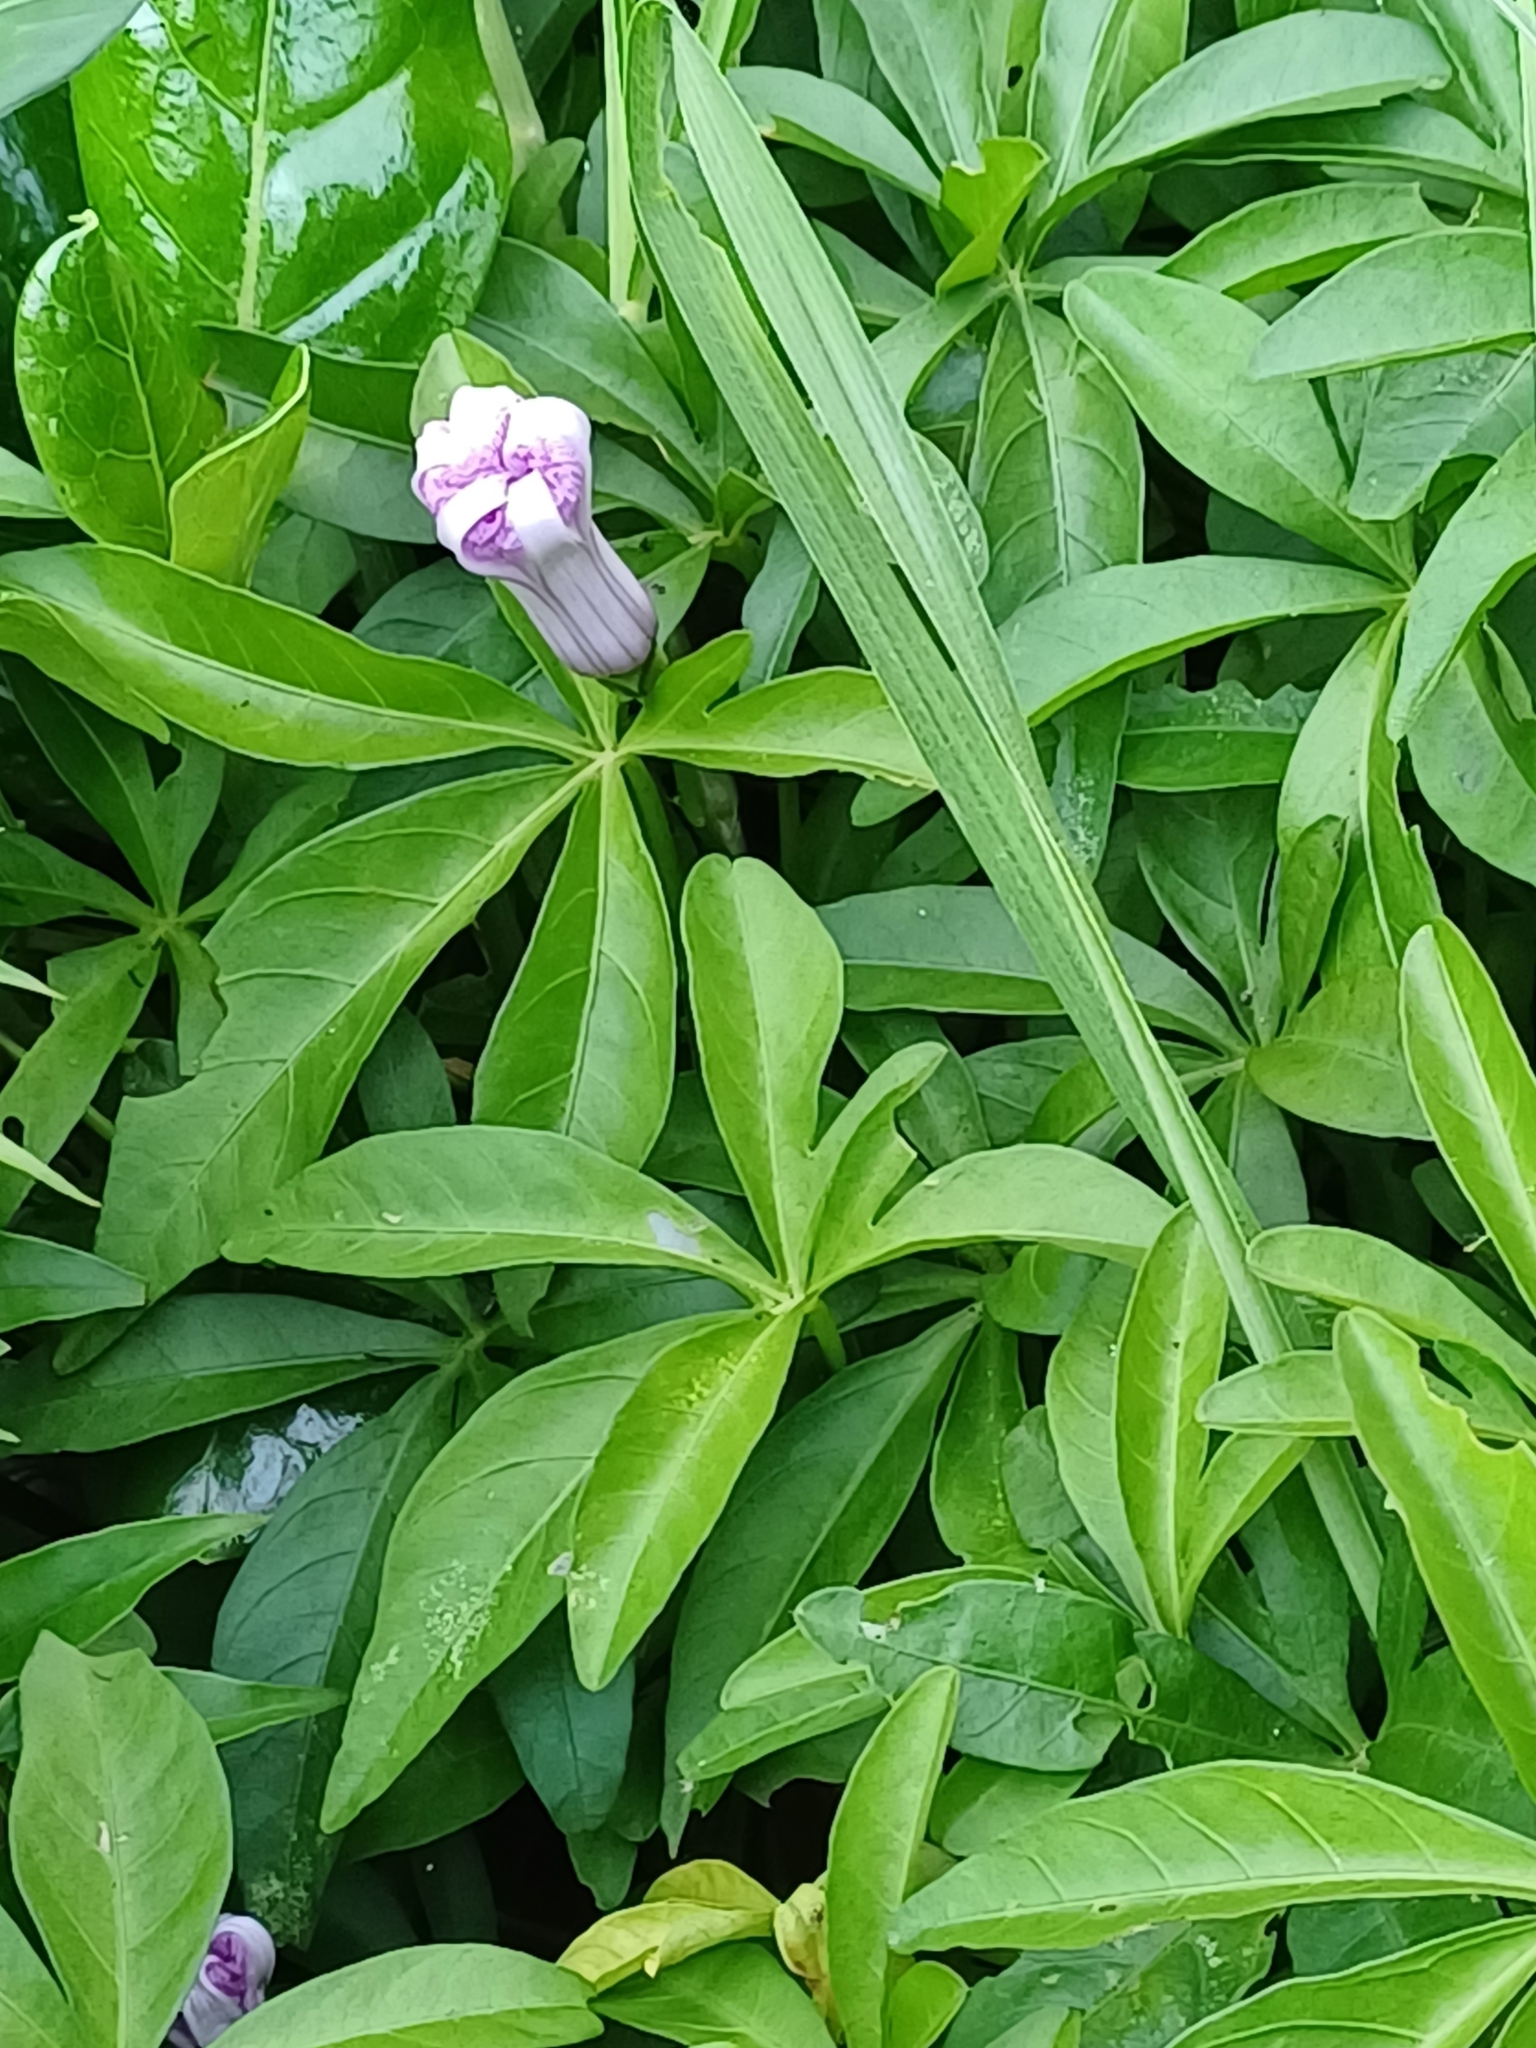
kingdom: Plantae
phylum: Tracheophyta
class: Magnoliopsida
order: Solanales
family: Convolvulaceae
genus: Ipomoea
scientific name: Ipomoea cairica
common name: Mile a minute vine
